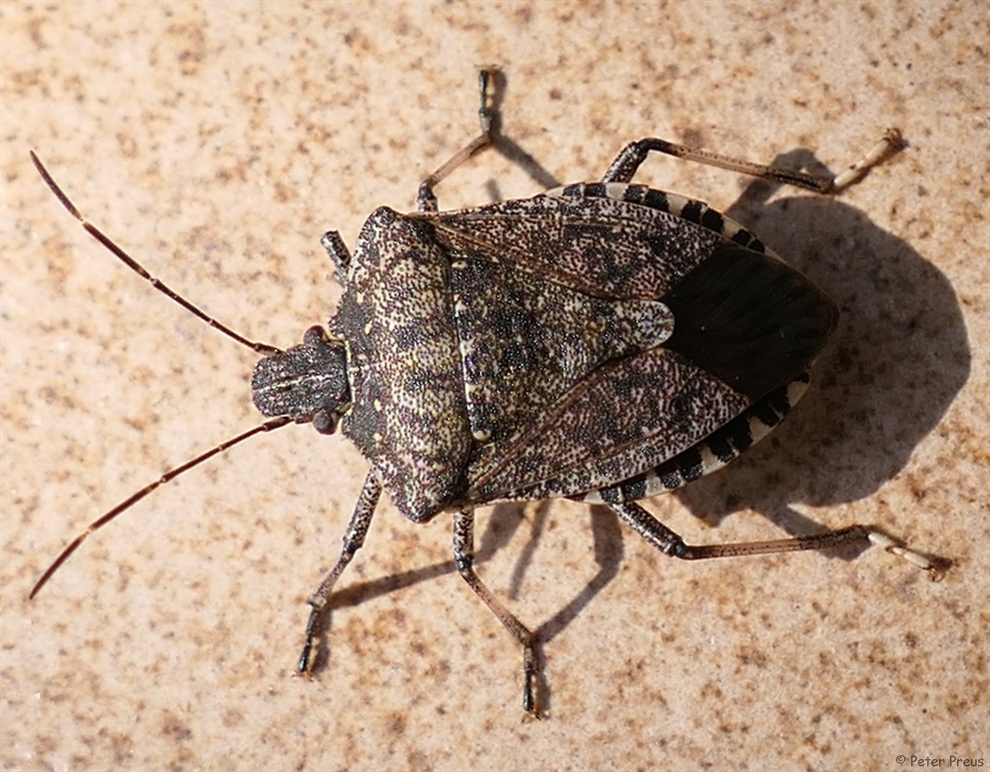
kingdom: Animalia
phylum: Arthropoda
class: Insecta
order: Hemiptera
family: Pentatomidae
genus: Halyomorpha
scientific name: Halyomorpha halys
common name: Brown marmorated stink bug
